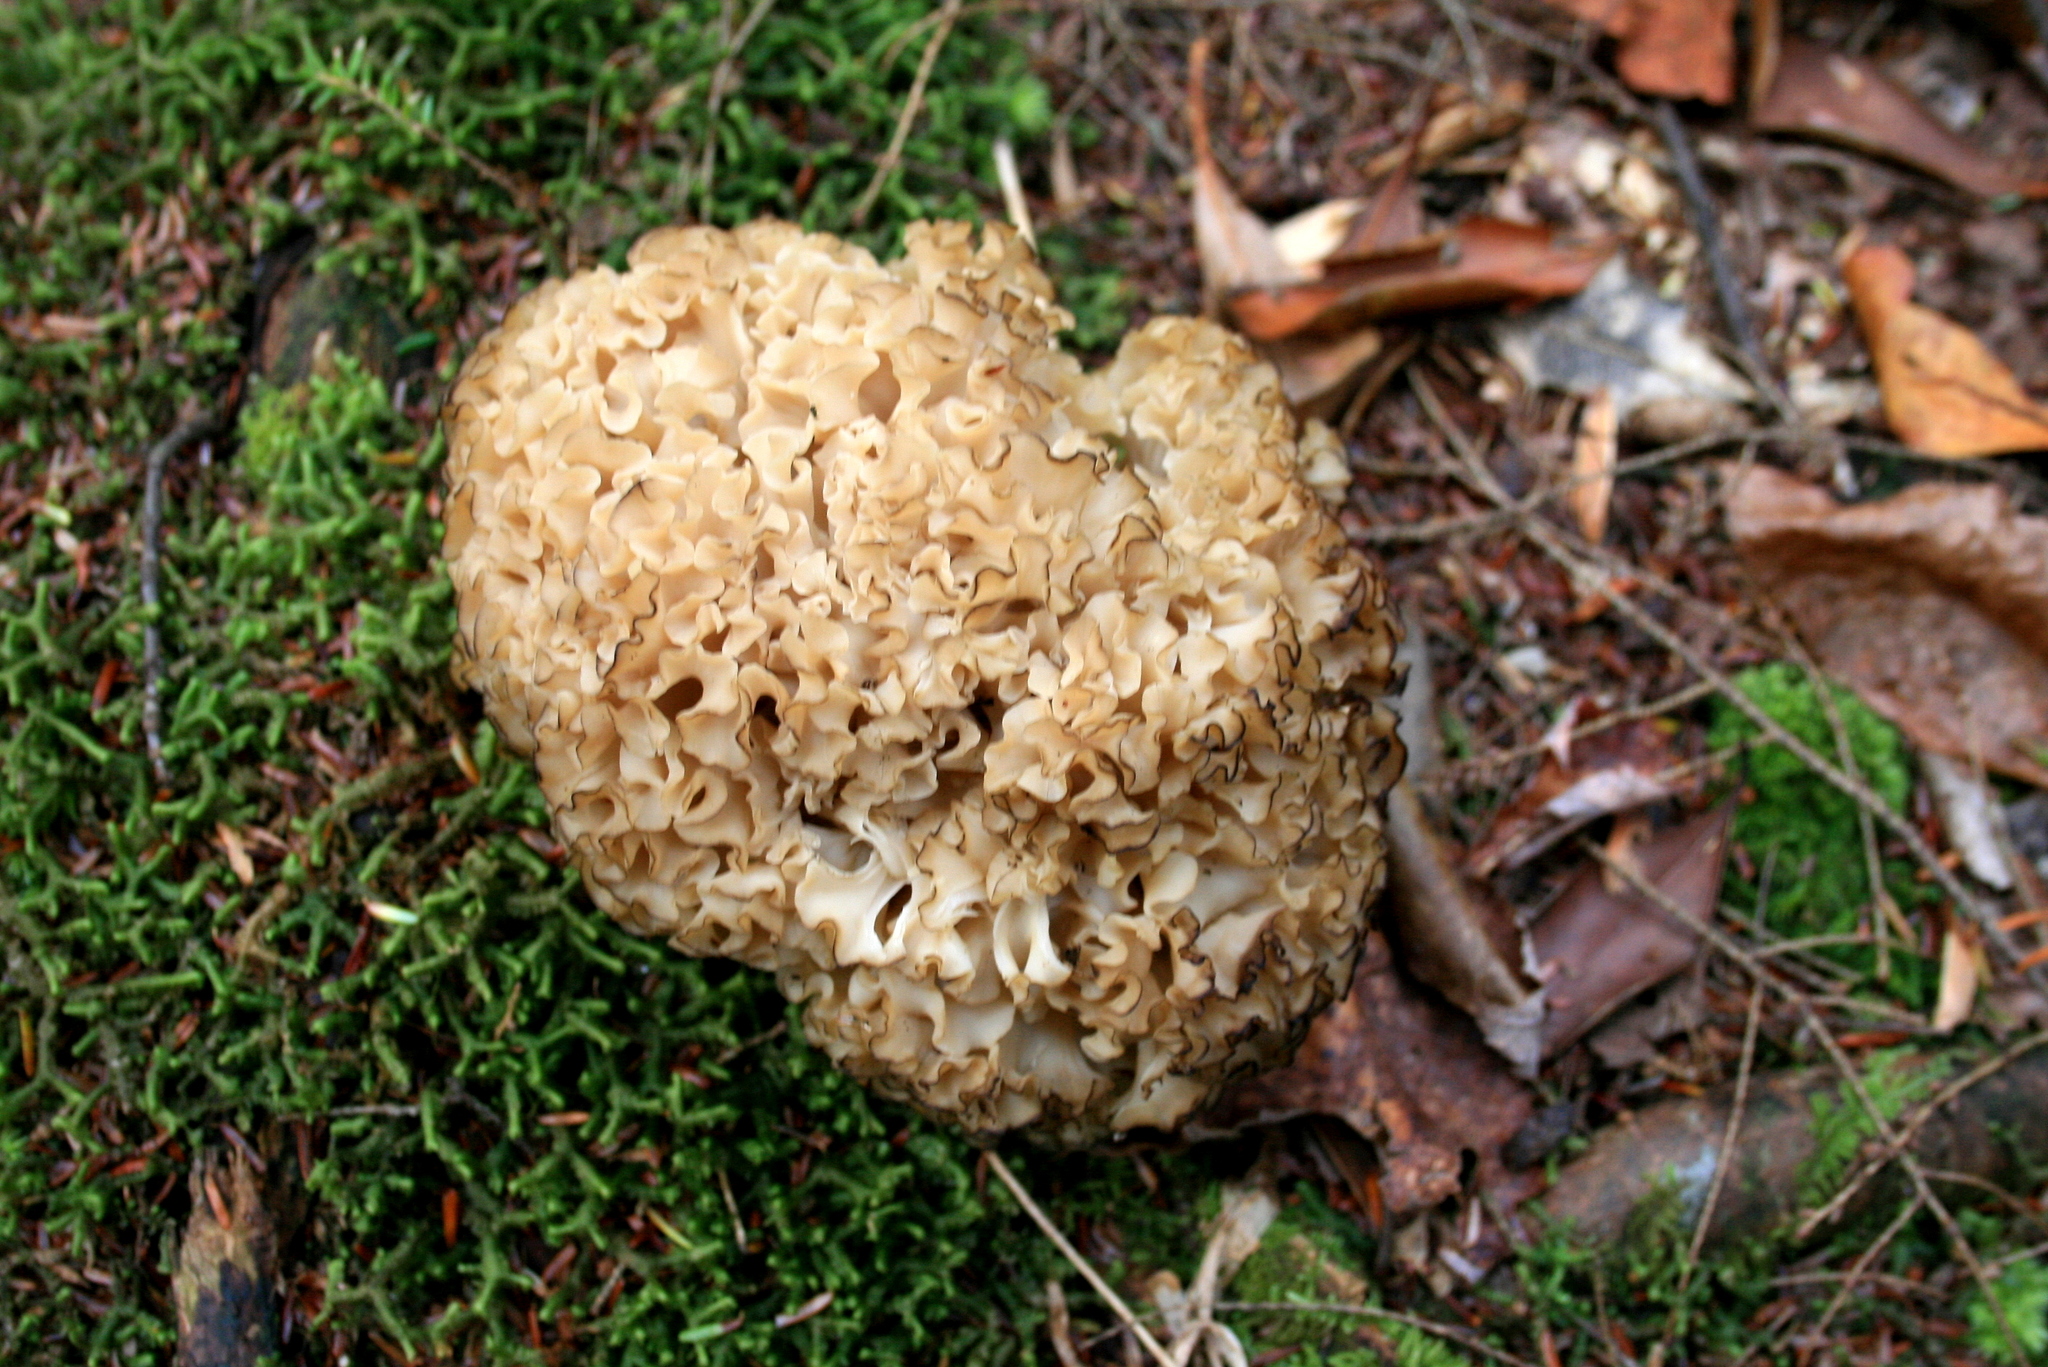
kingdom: Fungi
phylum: Basidiomycota
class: Agaricomycetes
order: Polyporales
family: Sparassidaceae
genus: Sparassis
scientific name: Sparassis americana
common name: American cauliflower mushroom
